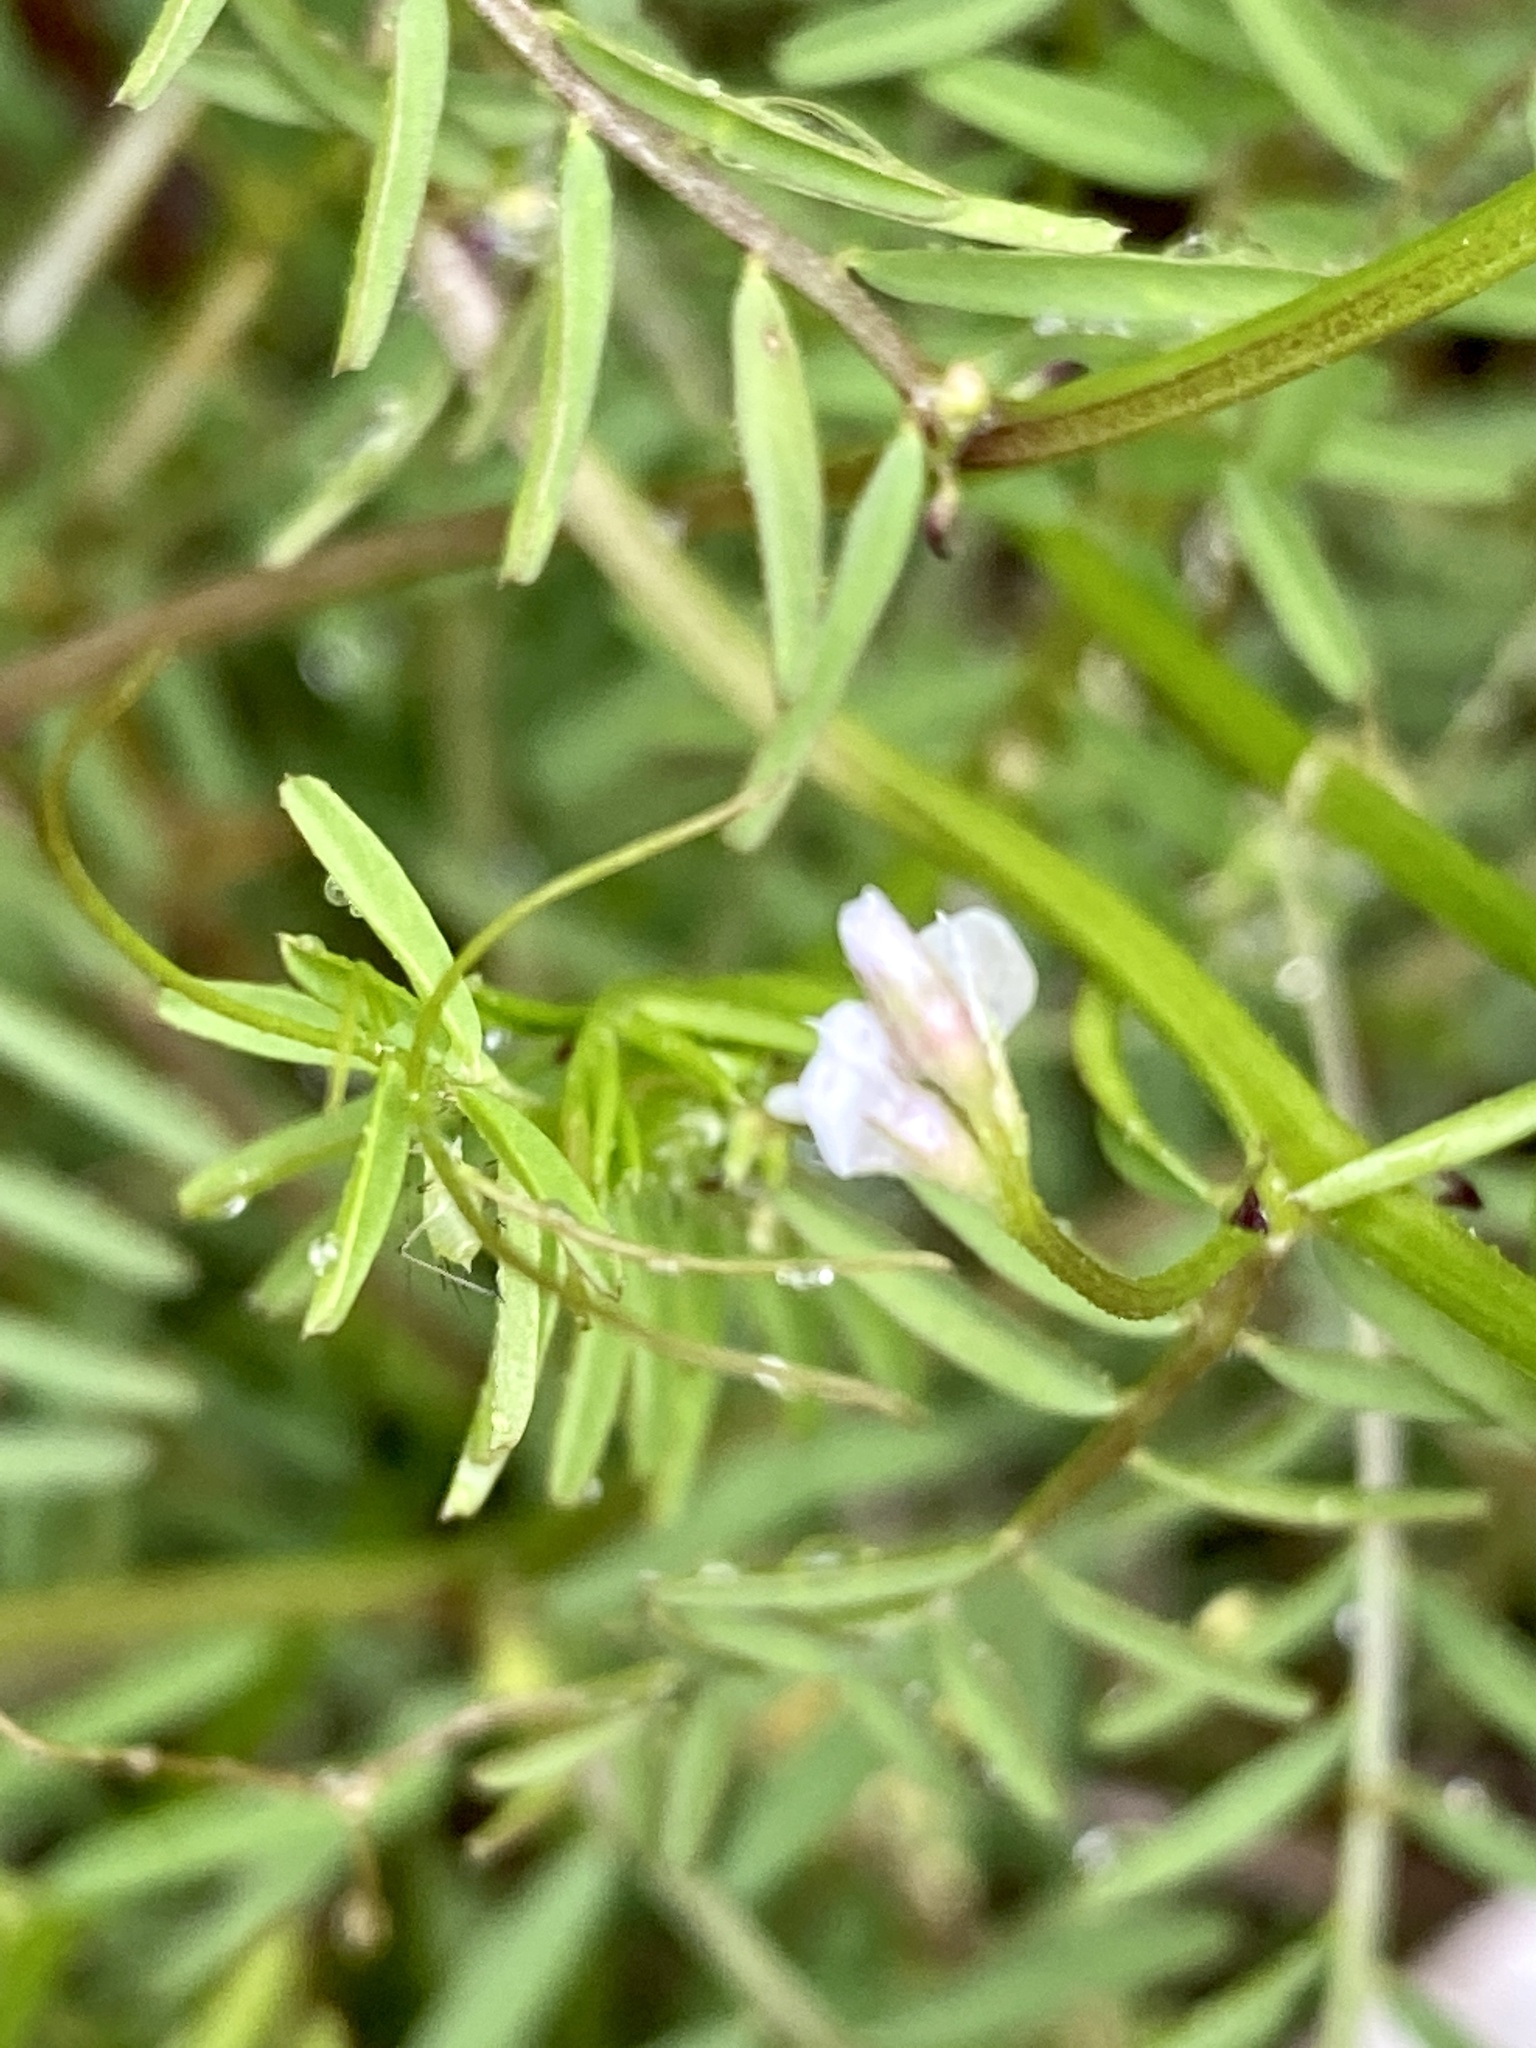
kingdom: Plantae
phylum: Tracheophyta
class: Magnoliopsida
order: Fabales
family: Fabaceae
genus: Vicia
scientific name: Vicia hirsuta
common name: Tiny vetch
